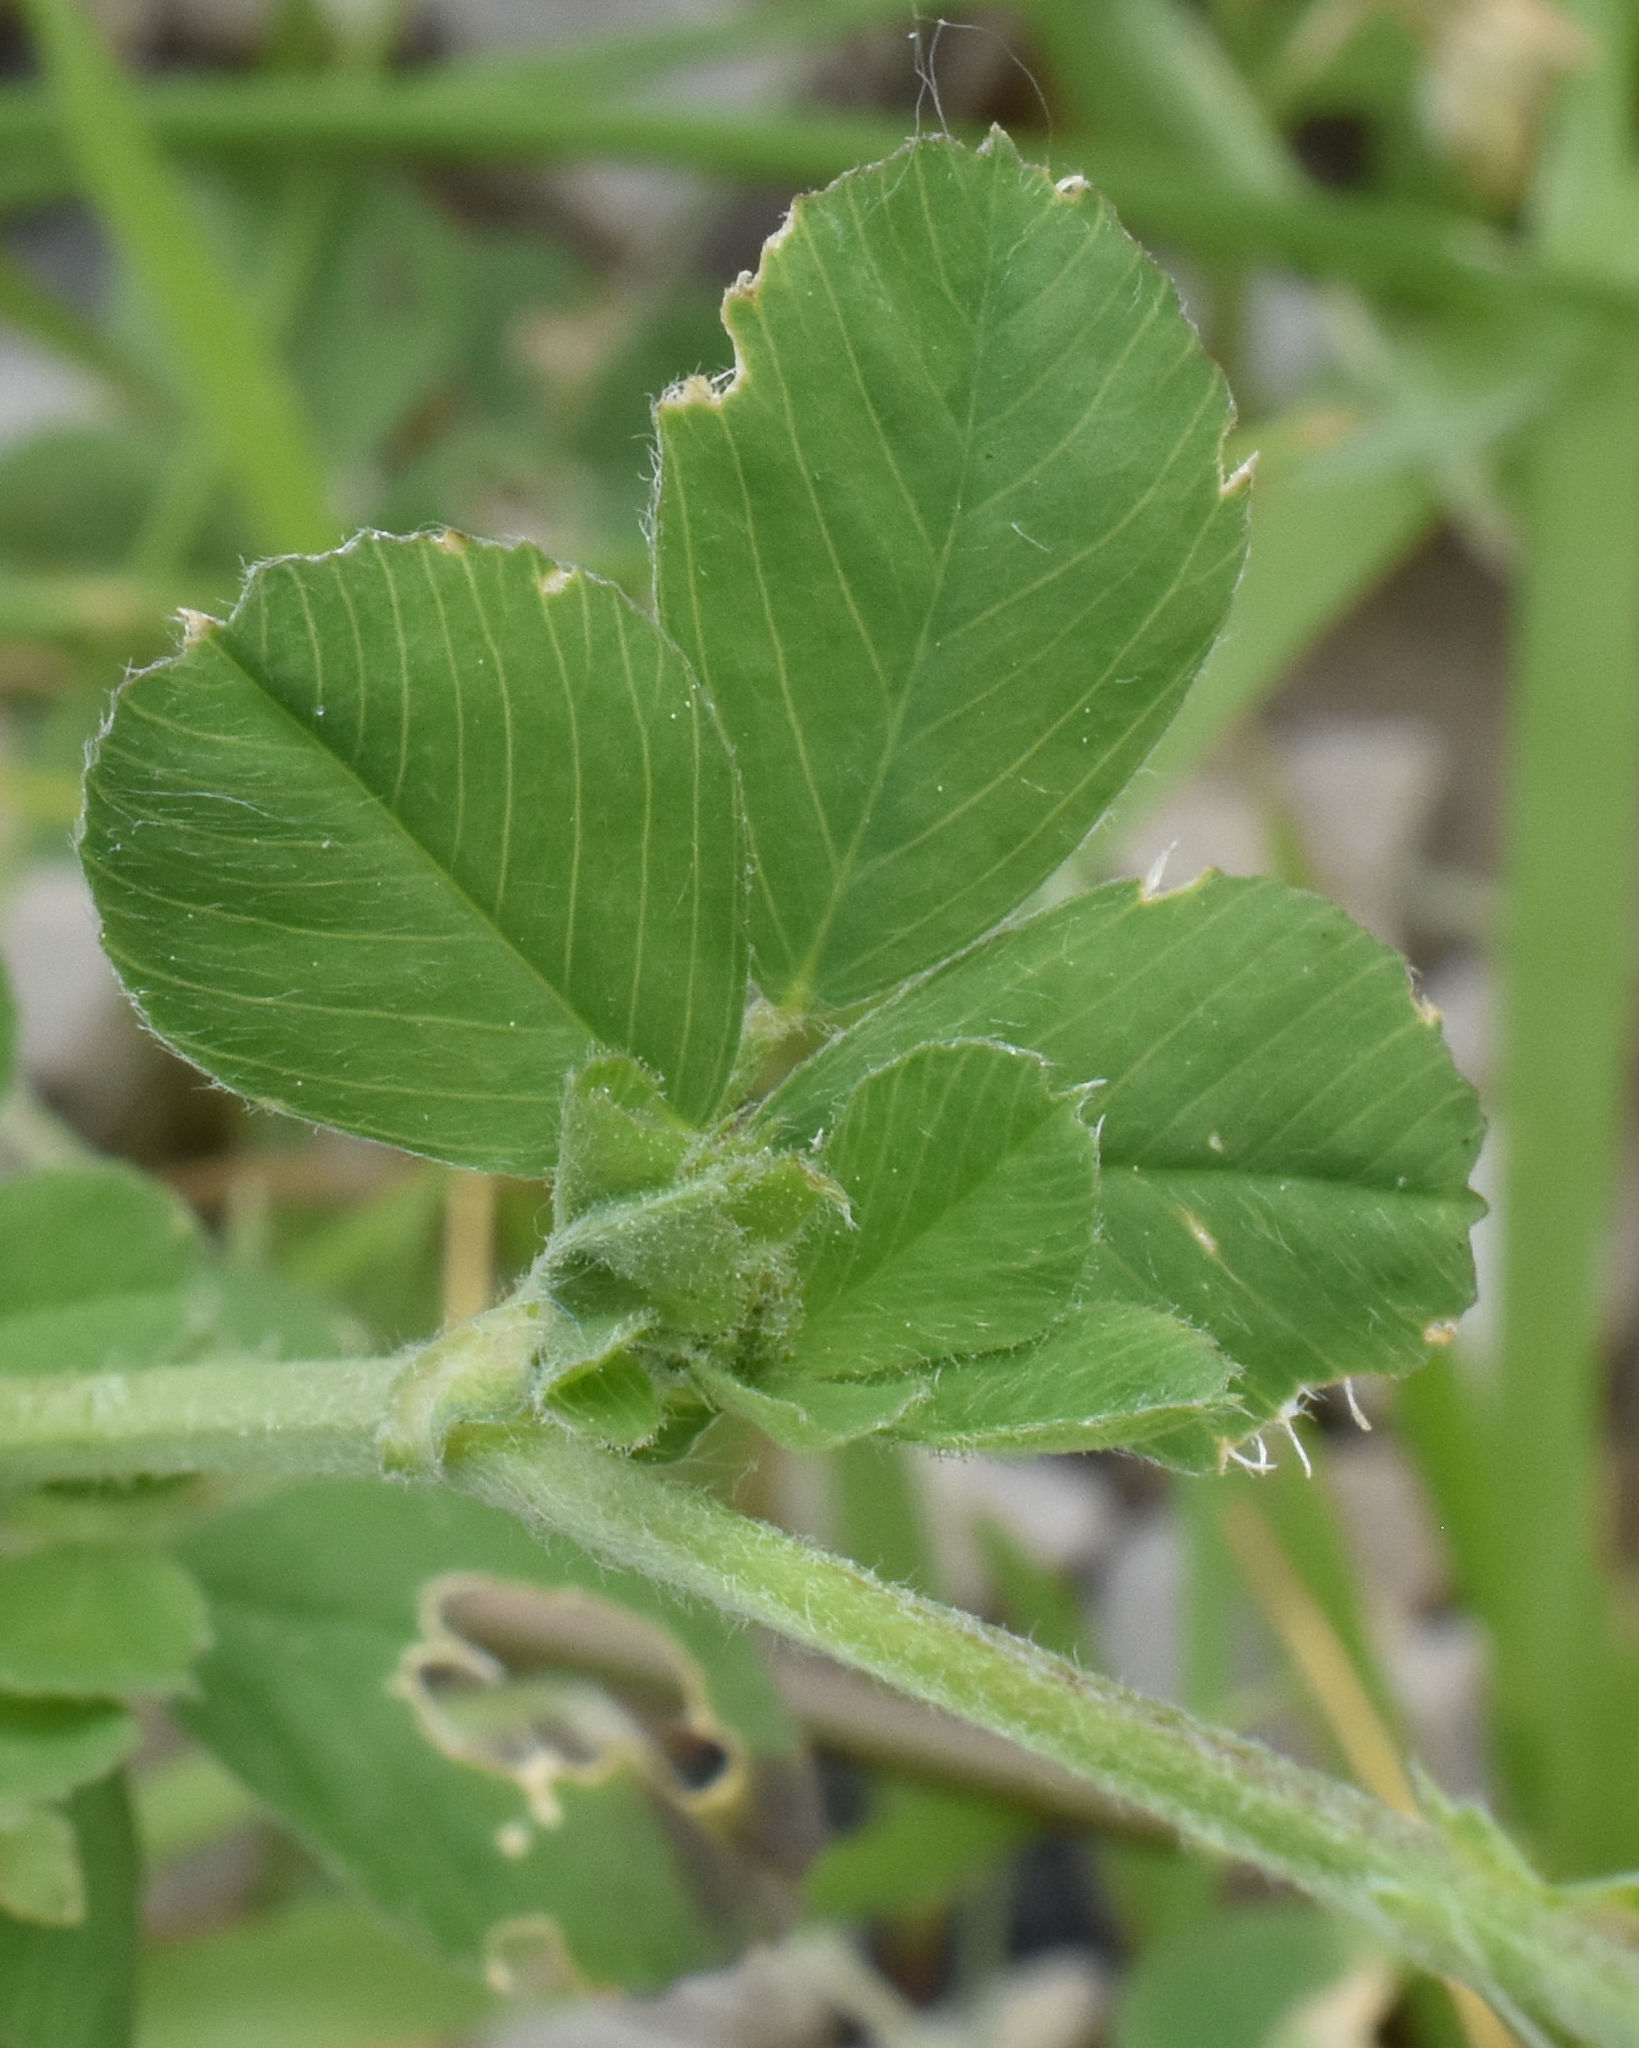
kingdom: Plantae
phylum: Tracheophyta
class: Magnoliopsida
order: Fabales
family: Fabaceae
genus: Medicago
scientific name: Medicago lupulina
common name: Black medick
